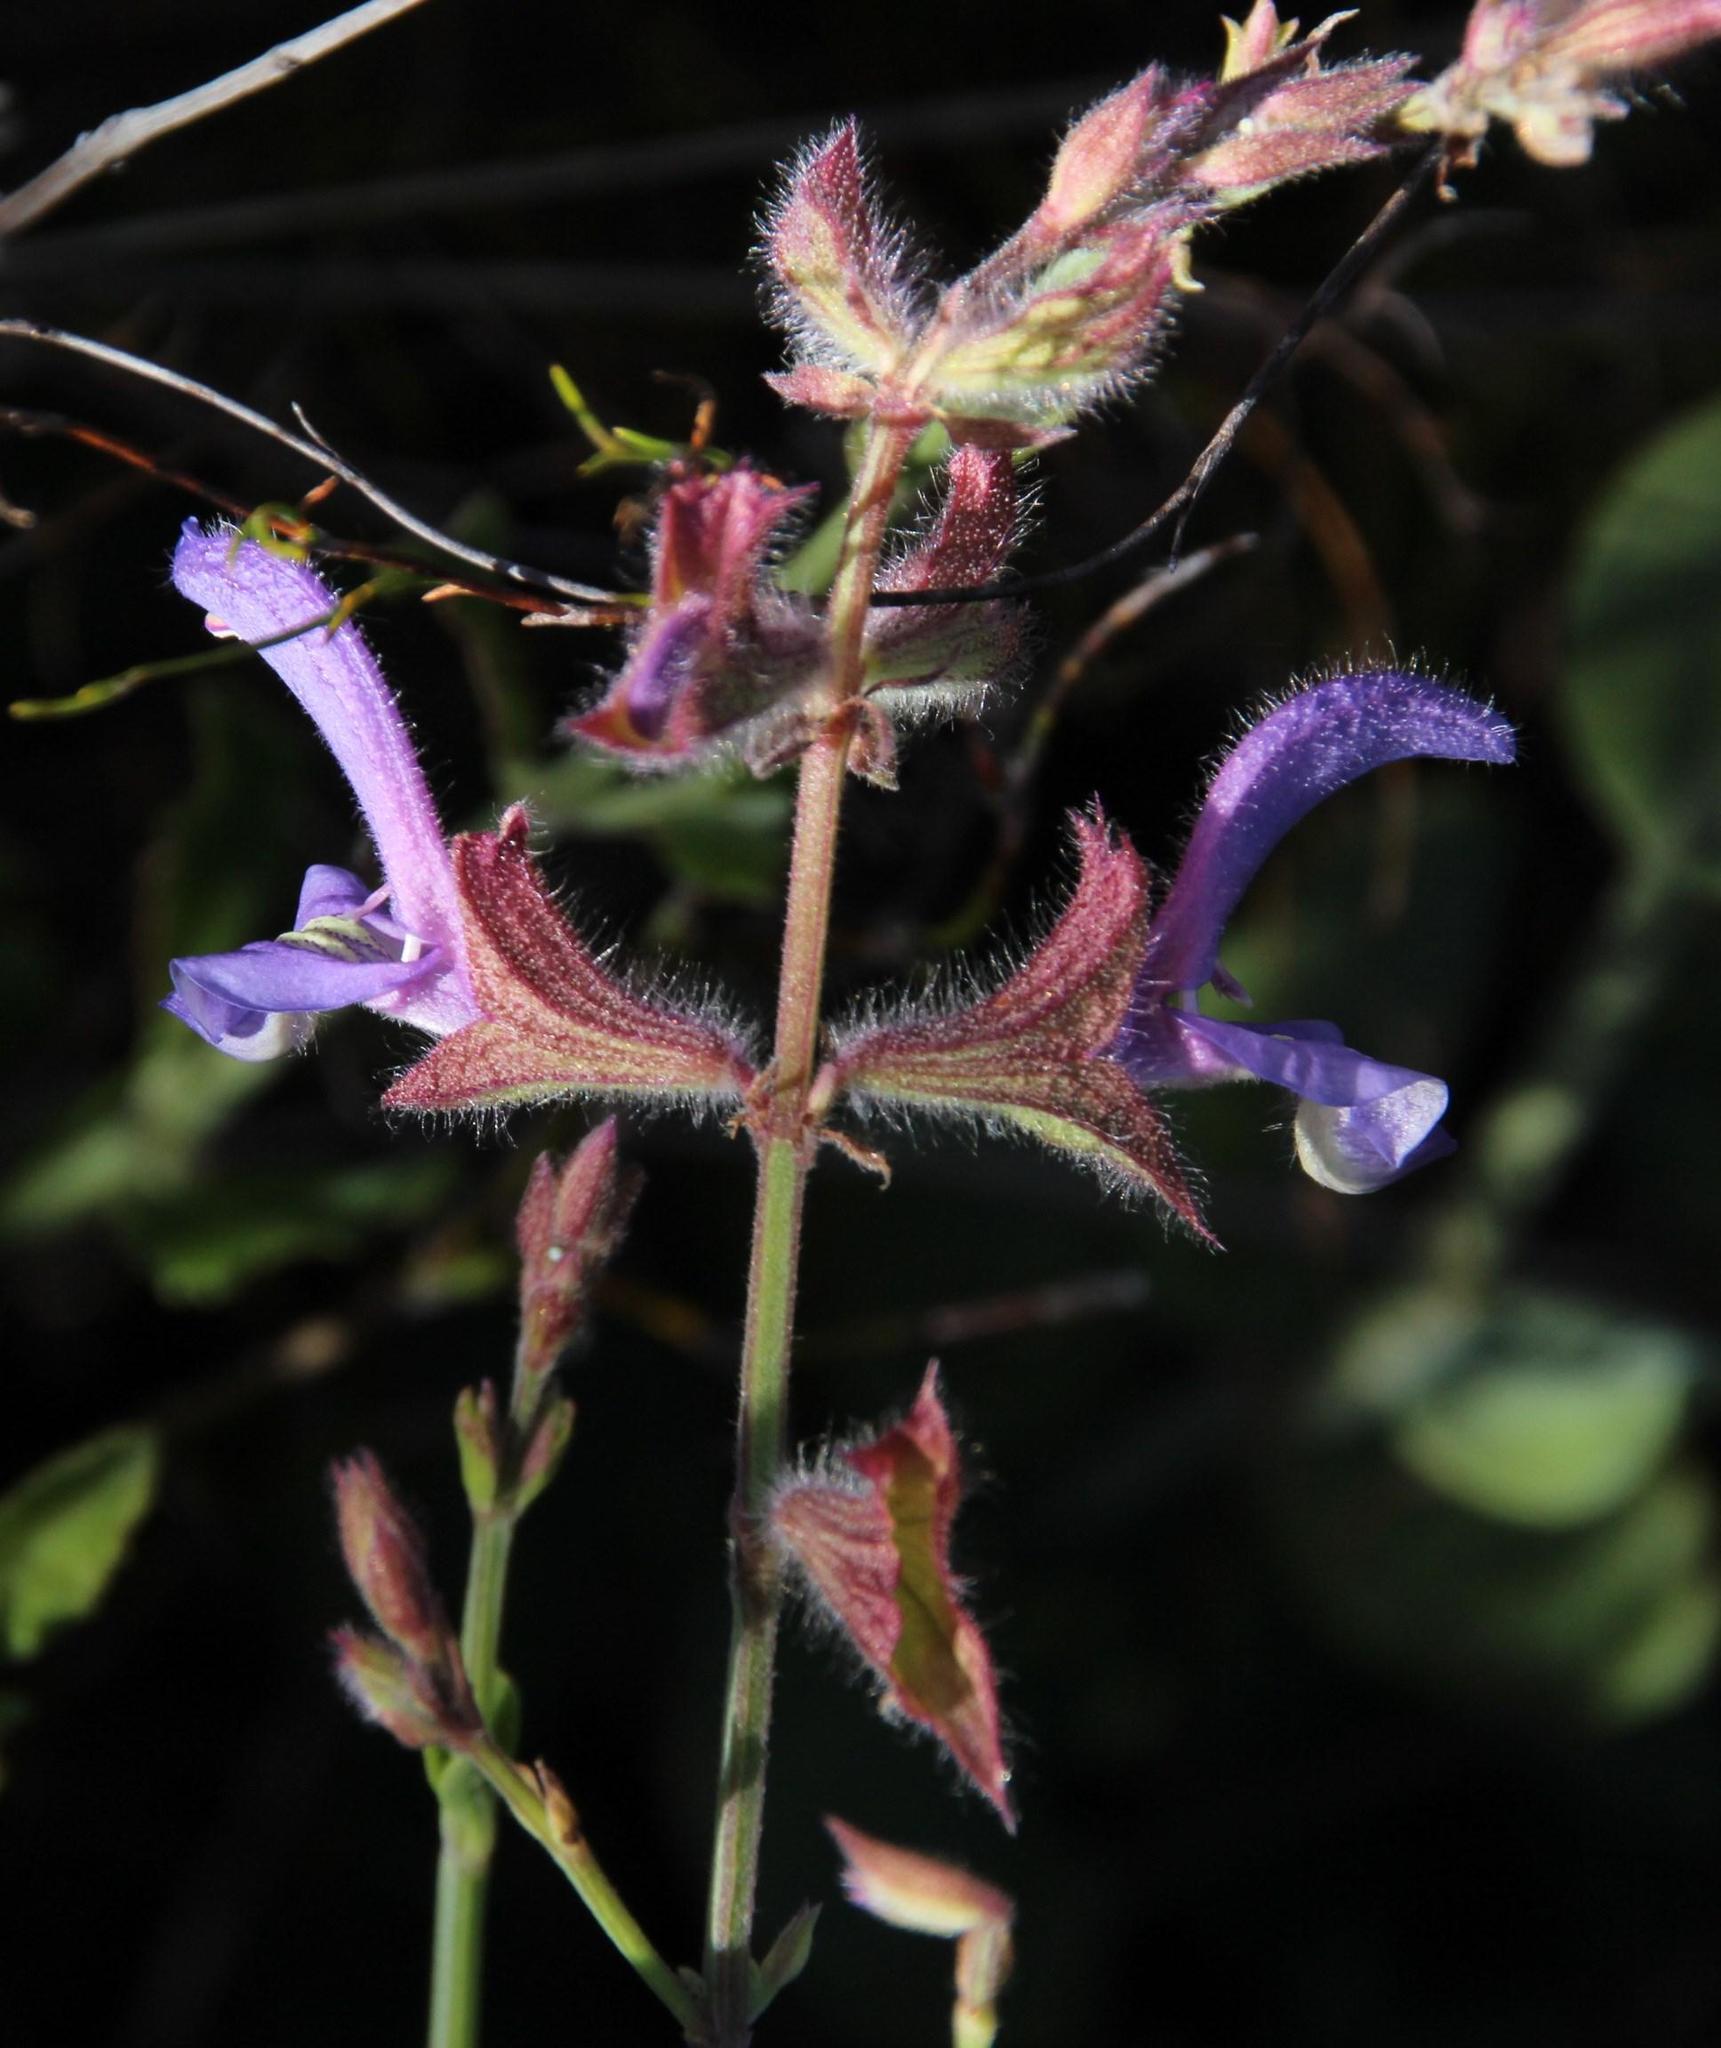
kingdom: Plantae
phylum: Tracheophyta
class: Magnoliopsida
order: Lamiales
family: Lamiaceae
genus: Salvia
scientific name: Salvia albicaulis
